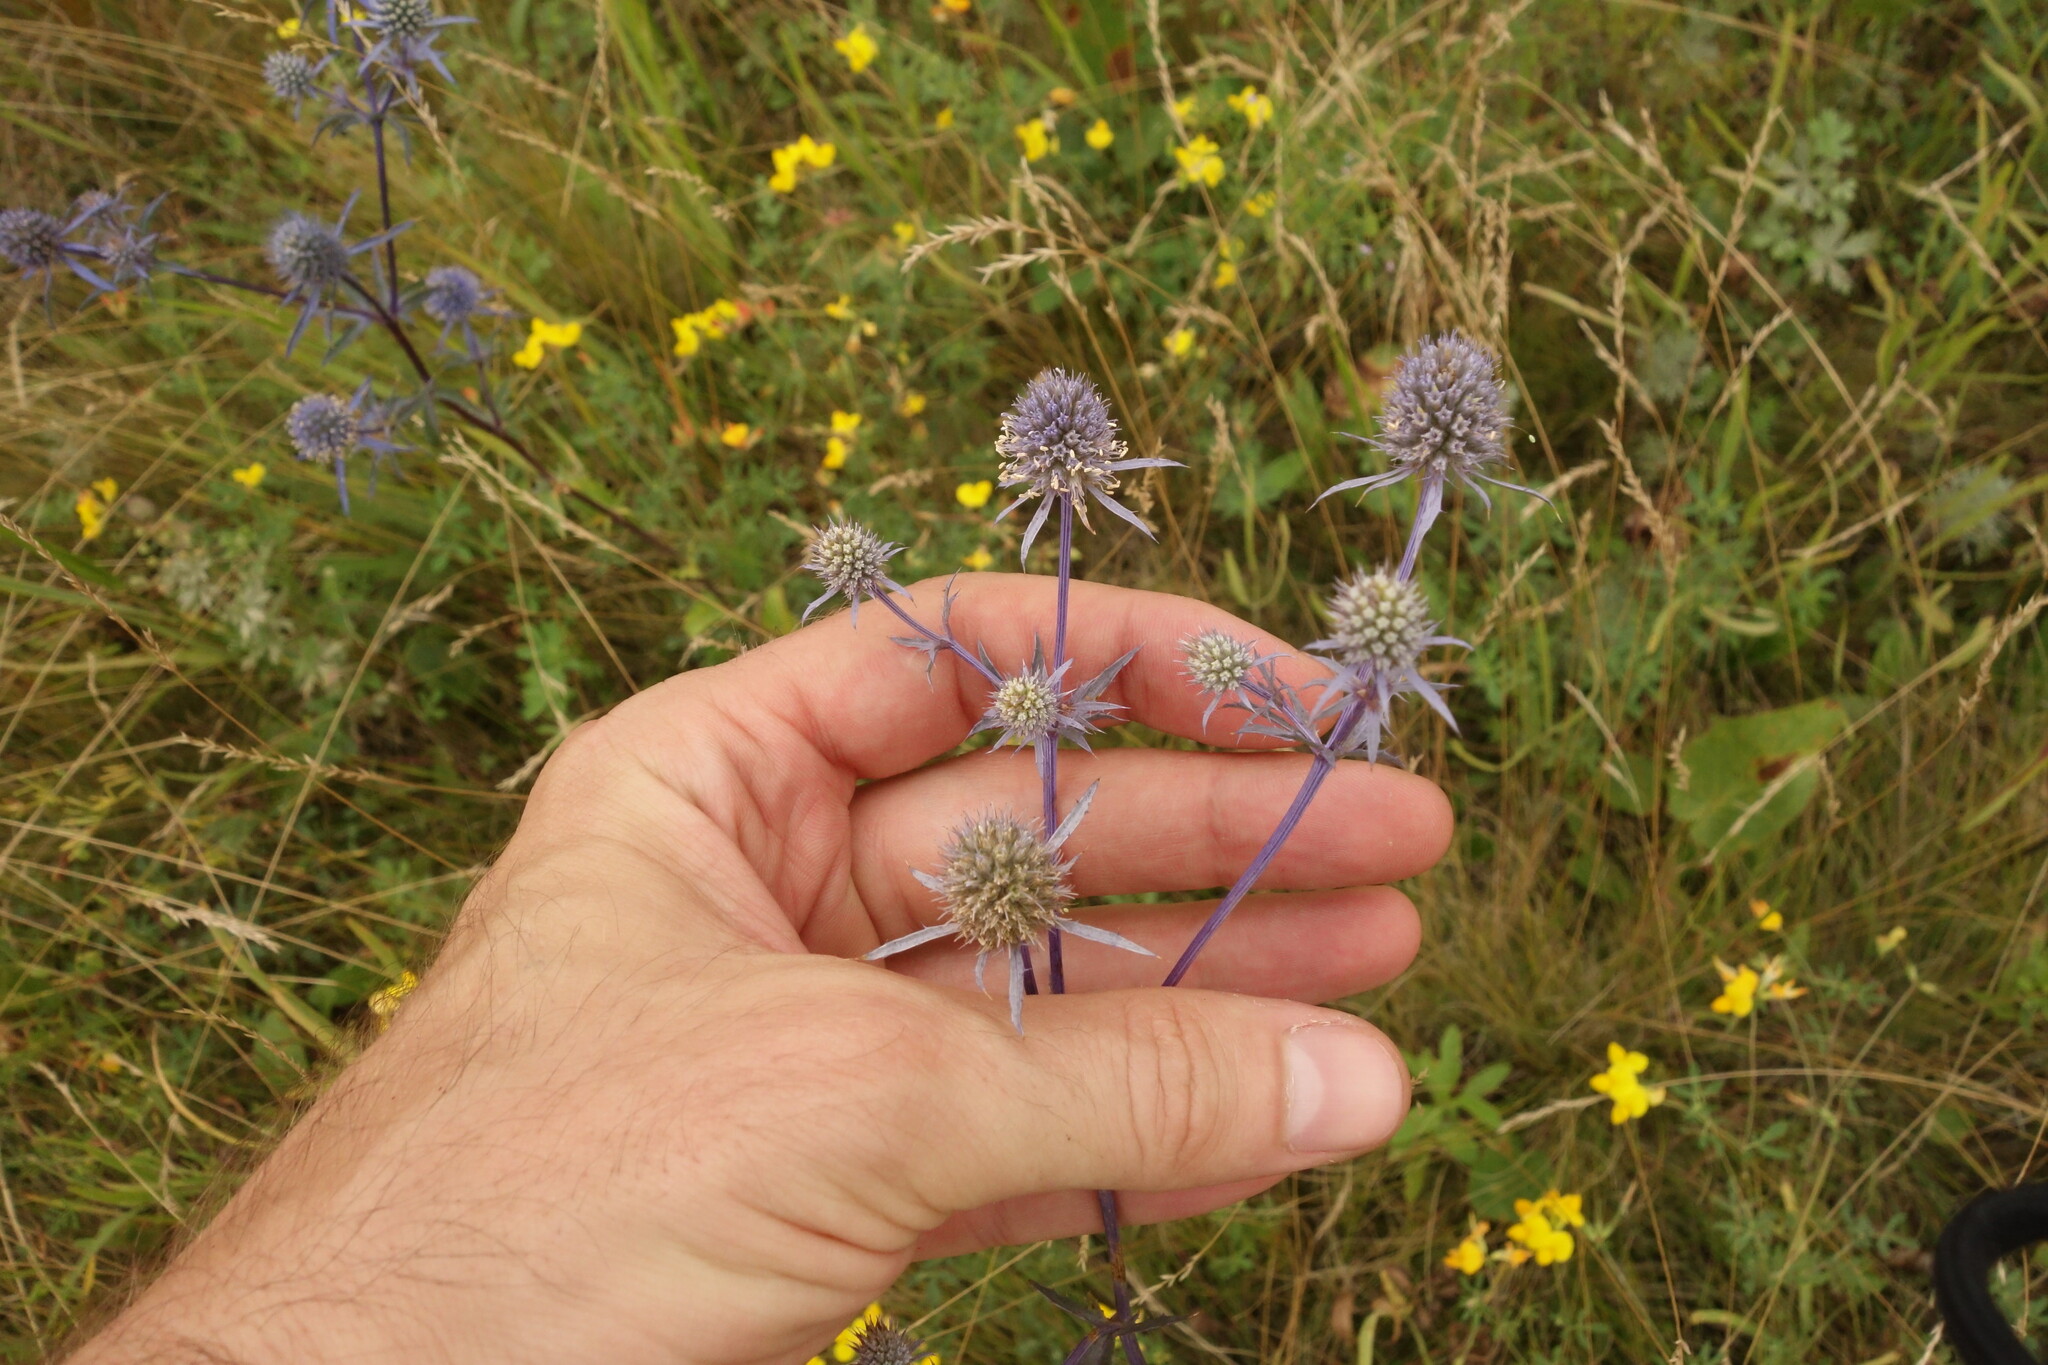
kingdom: Plantae
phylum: Tracheophyta
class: Magnoliopsida
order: Apiales
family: Apiaceae
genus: Eryngium
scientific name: Eryngium planum
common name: Blue eryngo
